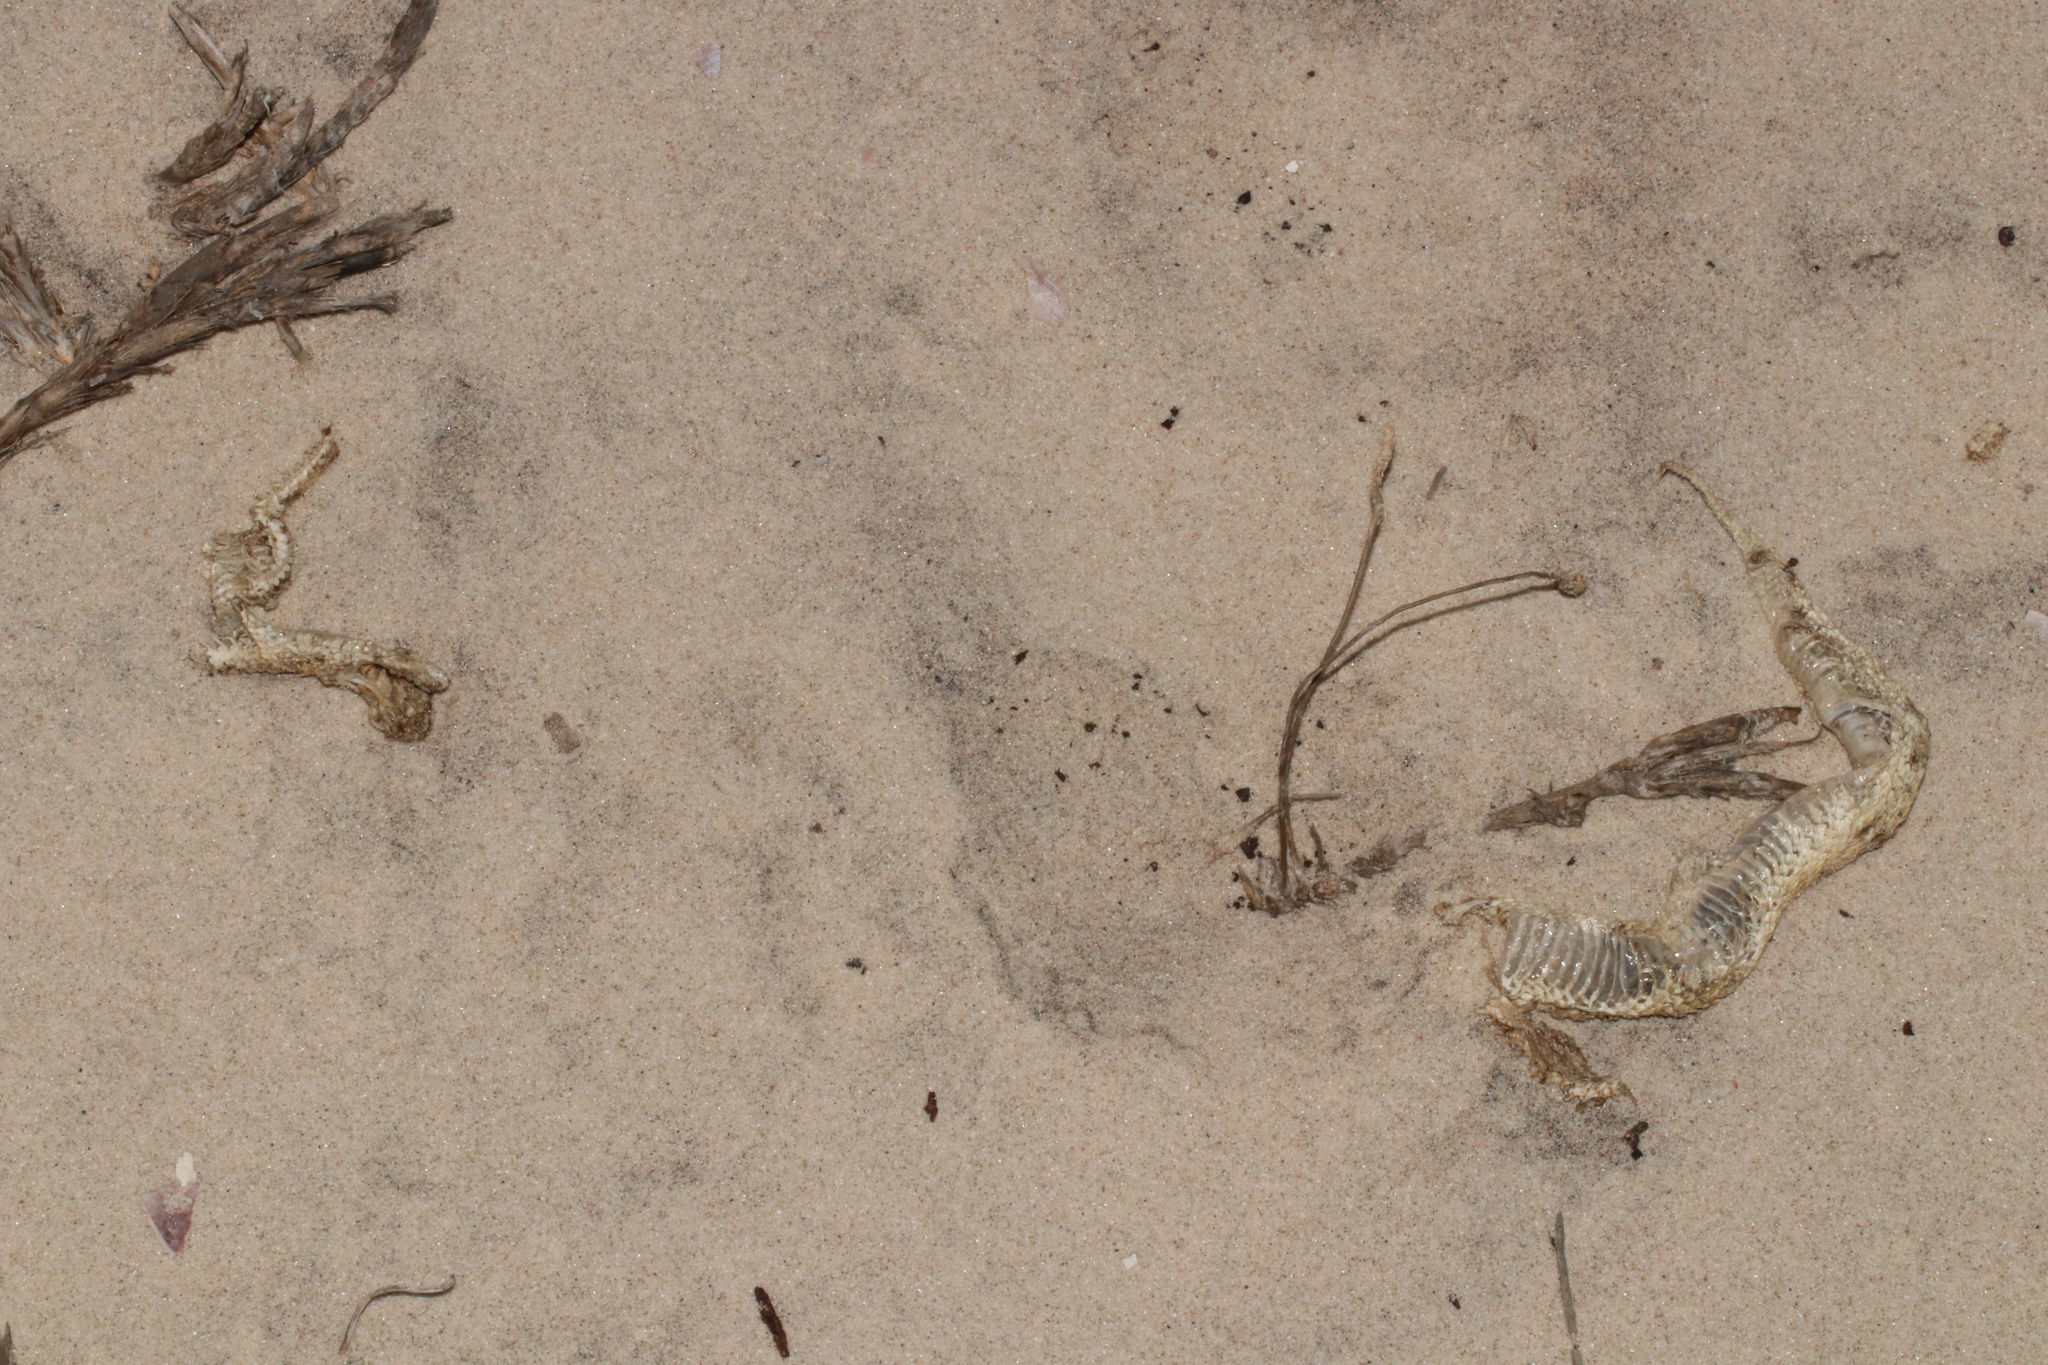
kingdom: Animalia
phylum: Chordata
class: Squamata
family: Viperidae
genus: Bitis
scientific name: Bitis schneideri
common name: Namaqua dwarf adder
